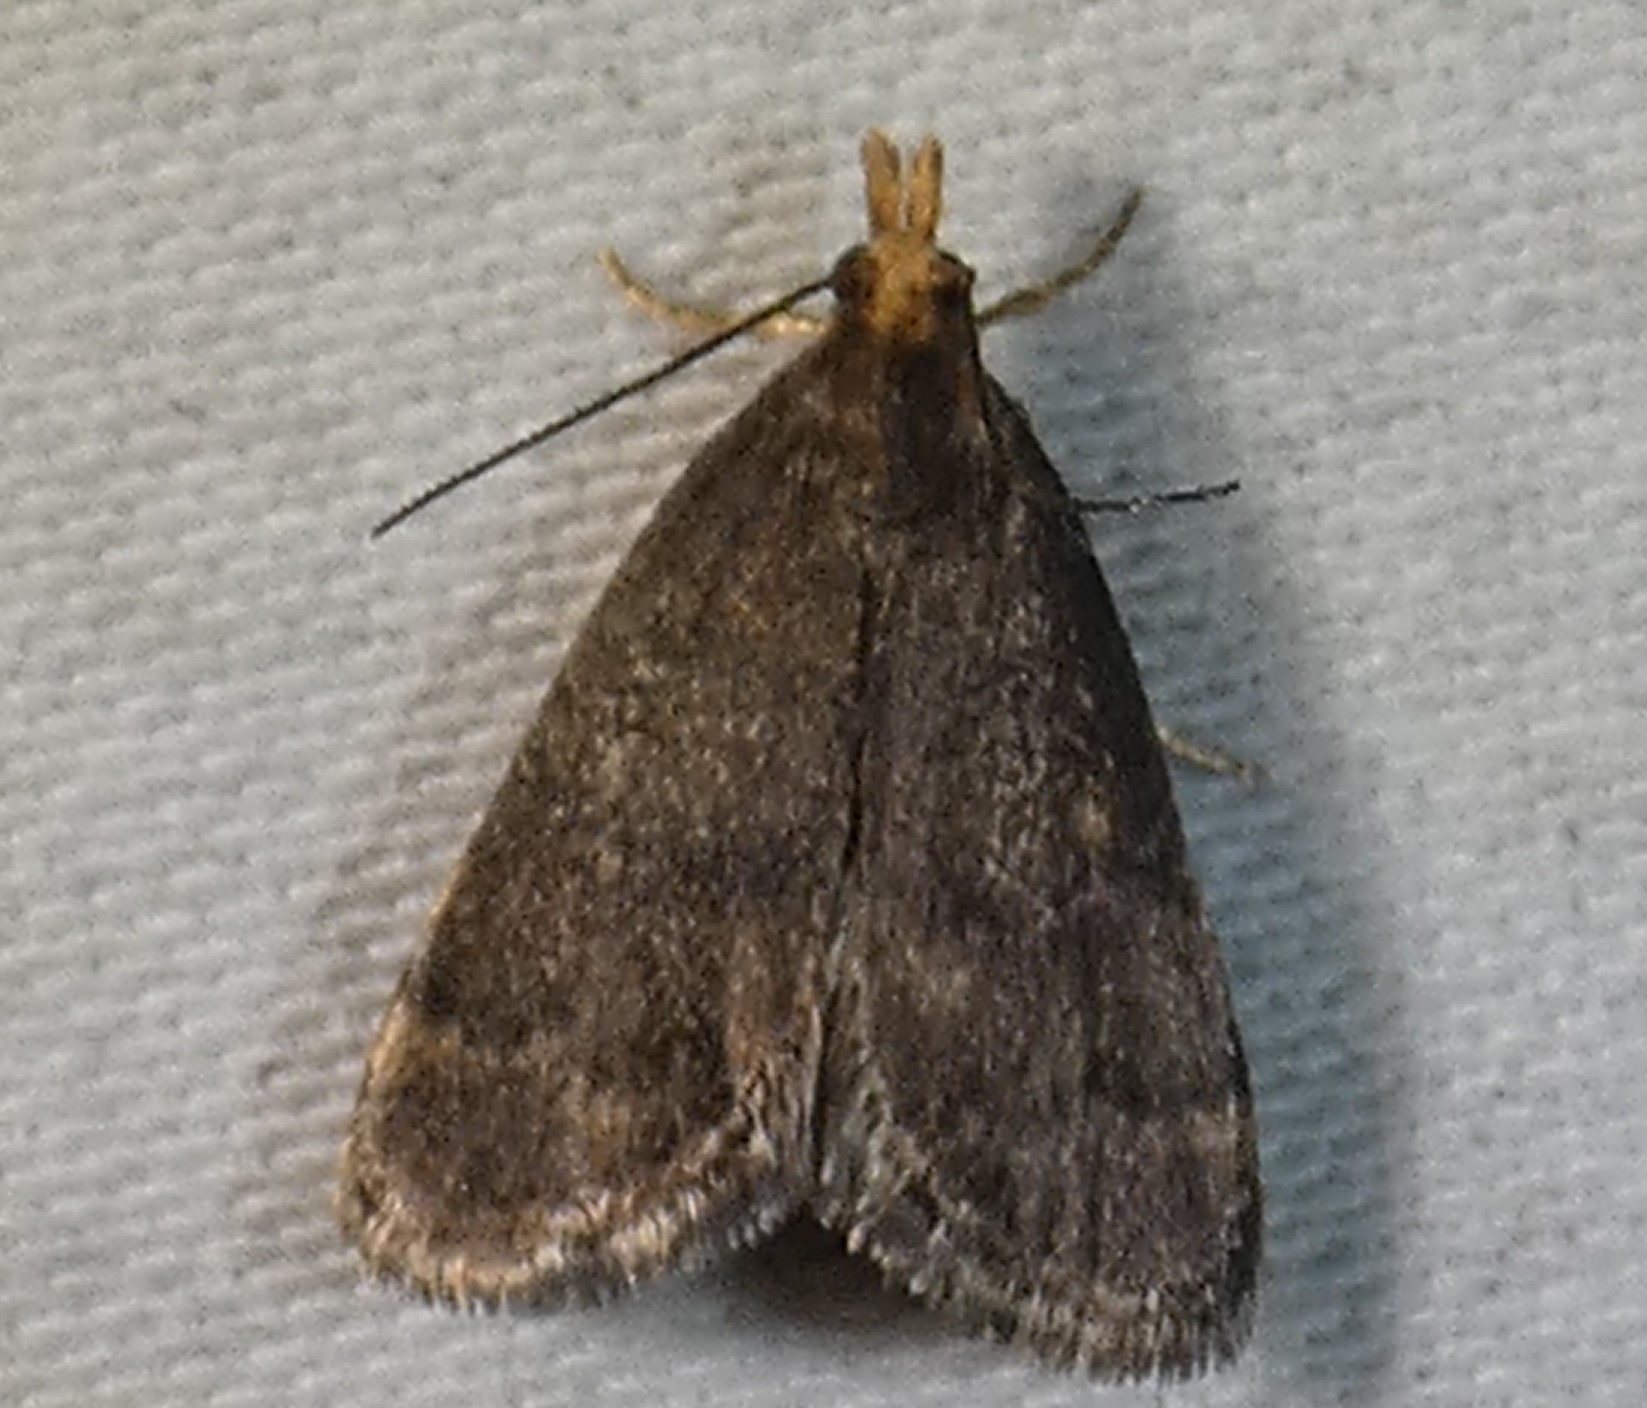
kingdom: Animalia
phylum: Arthropoda
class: Insecta
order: Lepidoptera
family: Crambidae
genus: Pyrausta
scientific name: Pyrausta merrickalis
